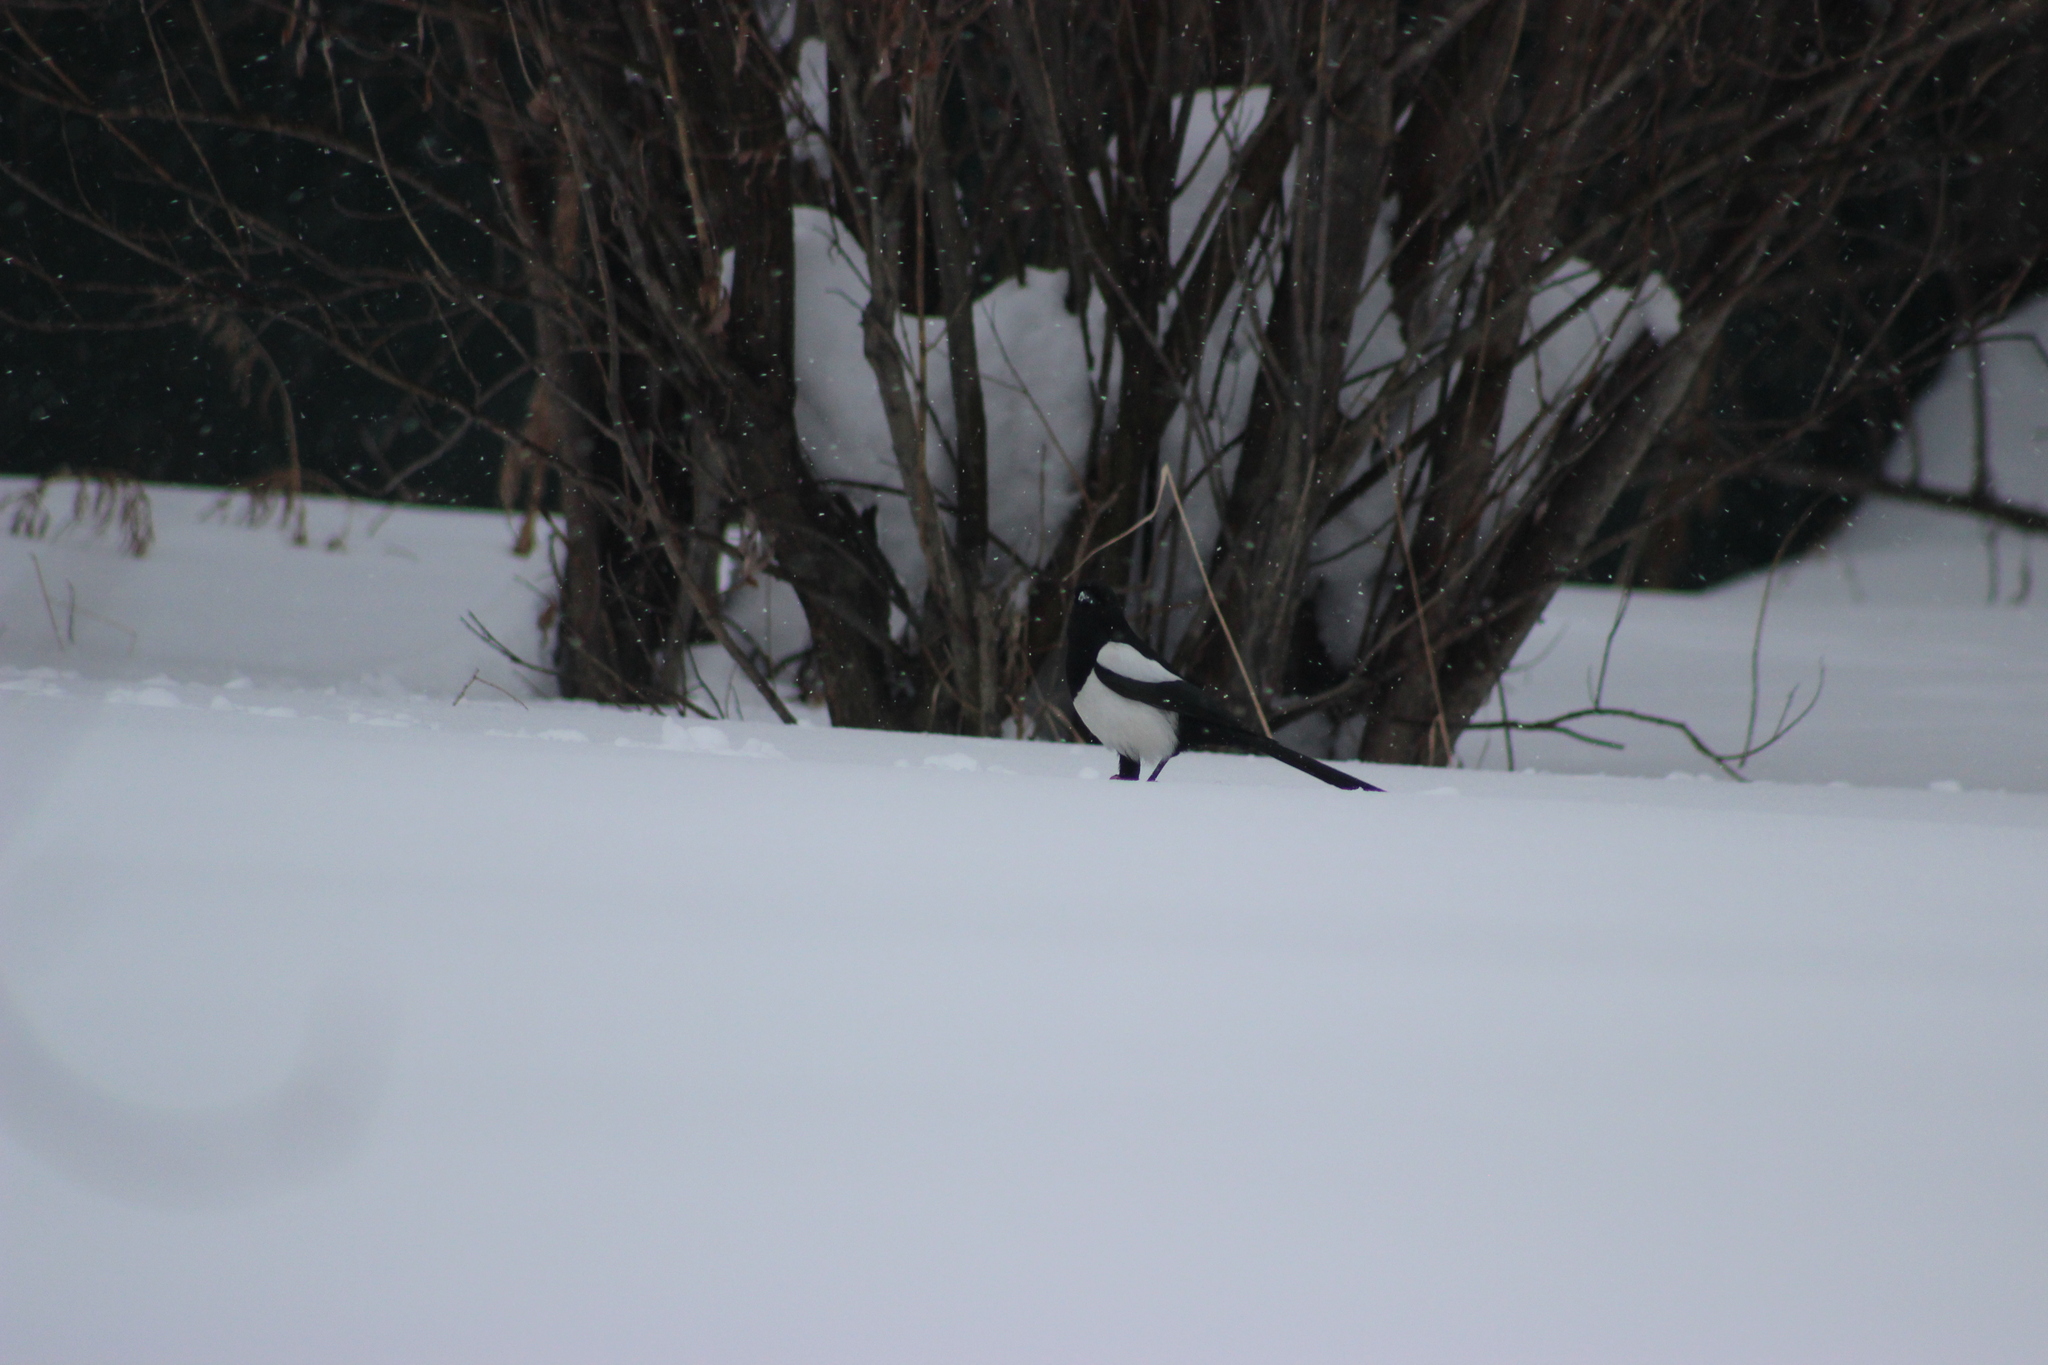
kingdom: Animalia
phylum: Chordata
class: Aves
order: Passeriformes
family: Corvidae
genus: Pica
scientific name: Pica pica
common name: Eurasian magpie
